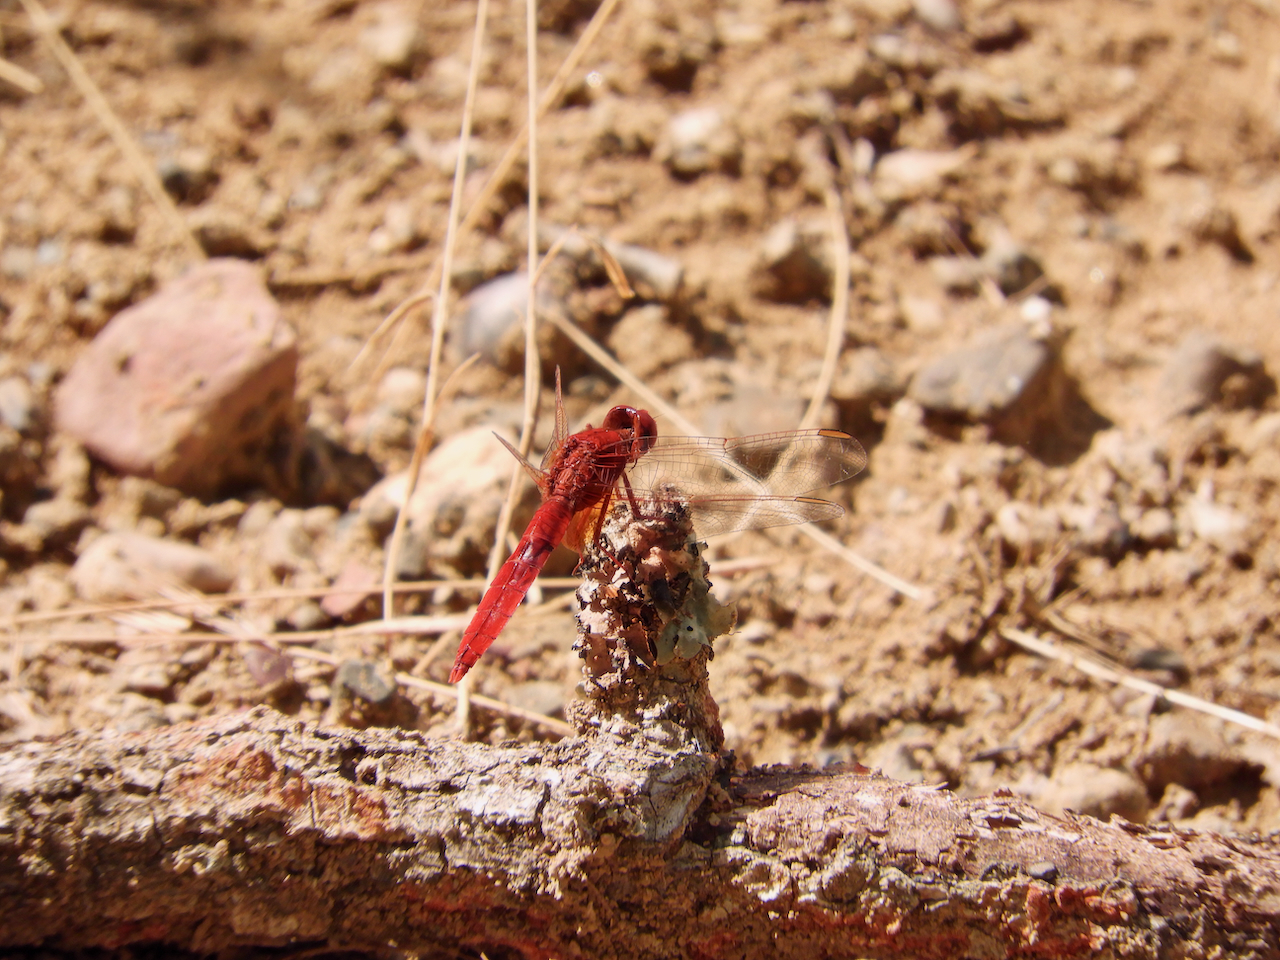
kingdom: Animalia
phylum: Arthropoda
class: Insecta
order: Odonata
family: Libellulidae
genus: Crocothemis
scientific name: Crocothemis erythraea
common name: Scarlet dragonfly
